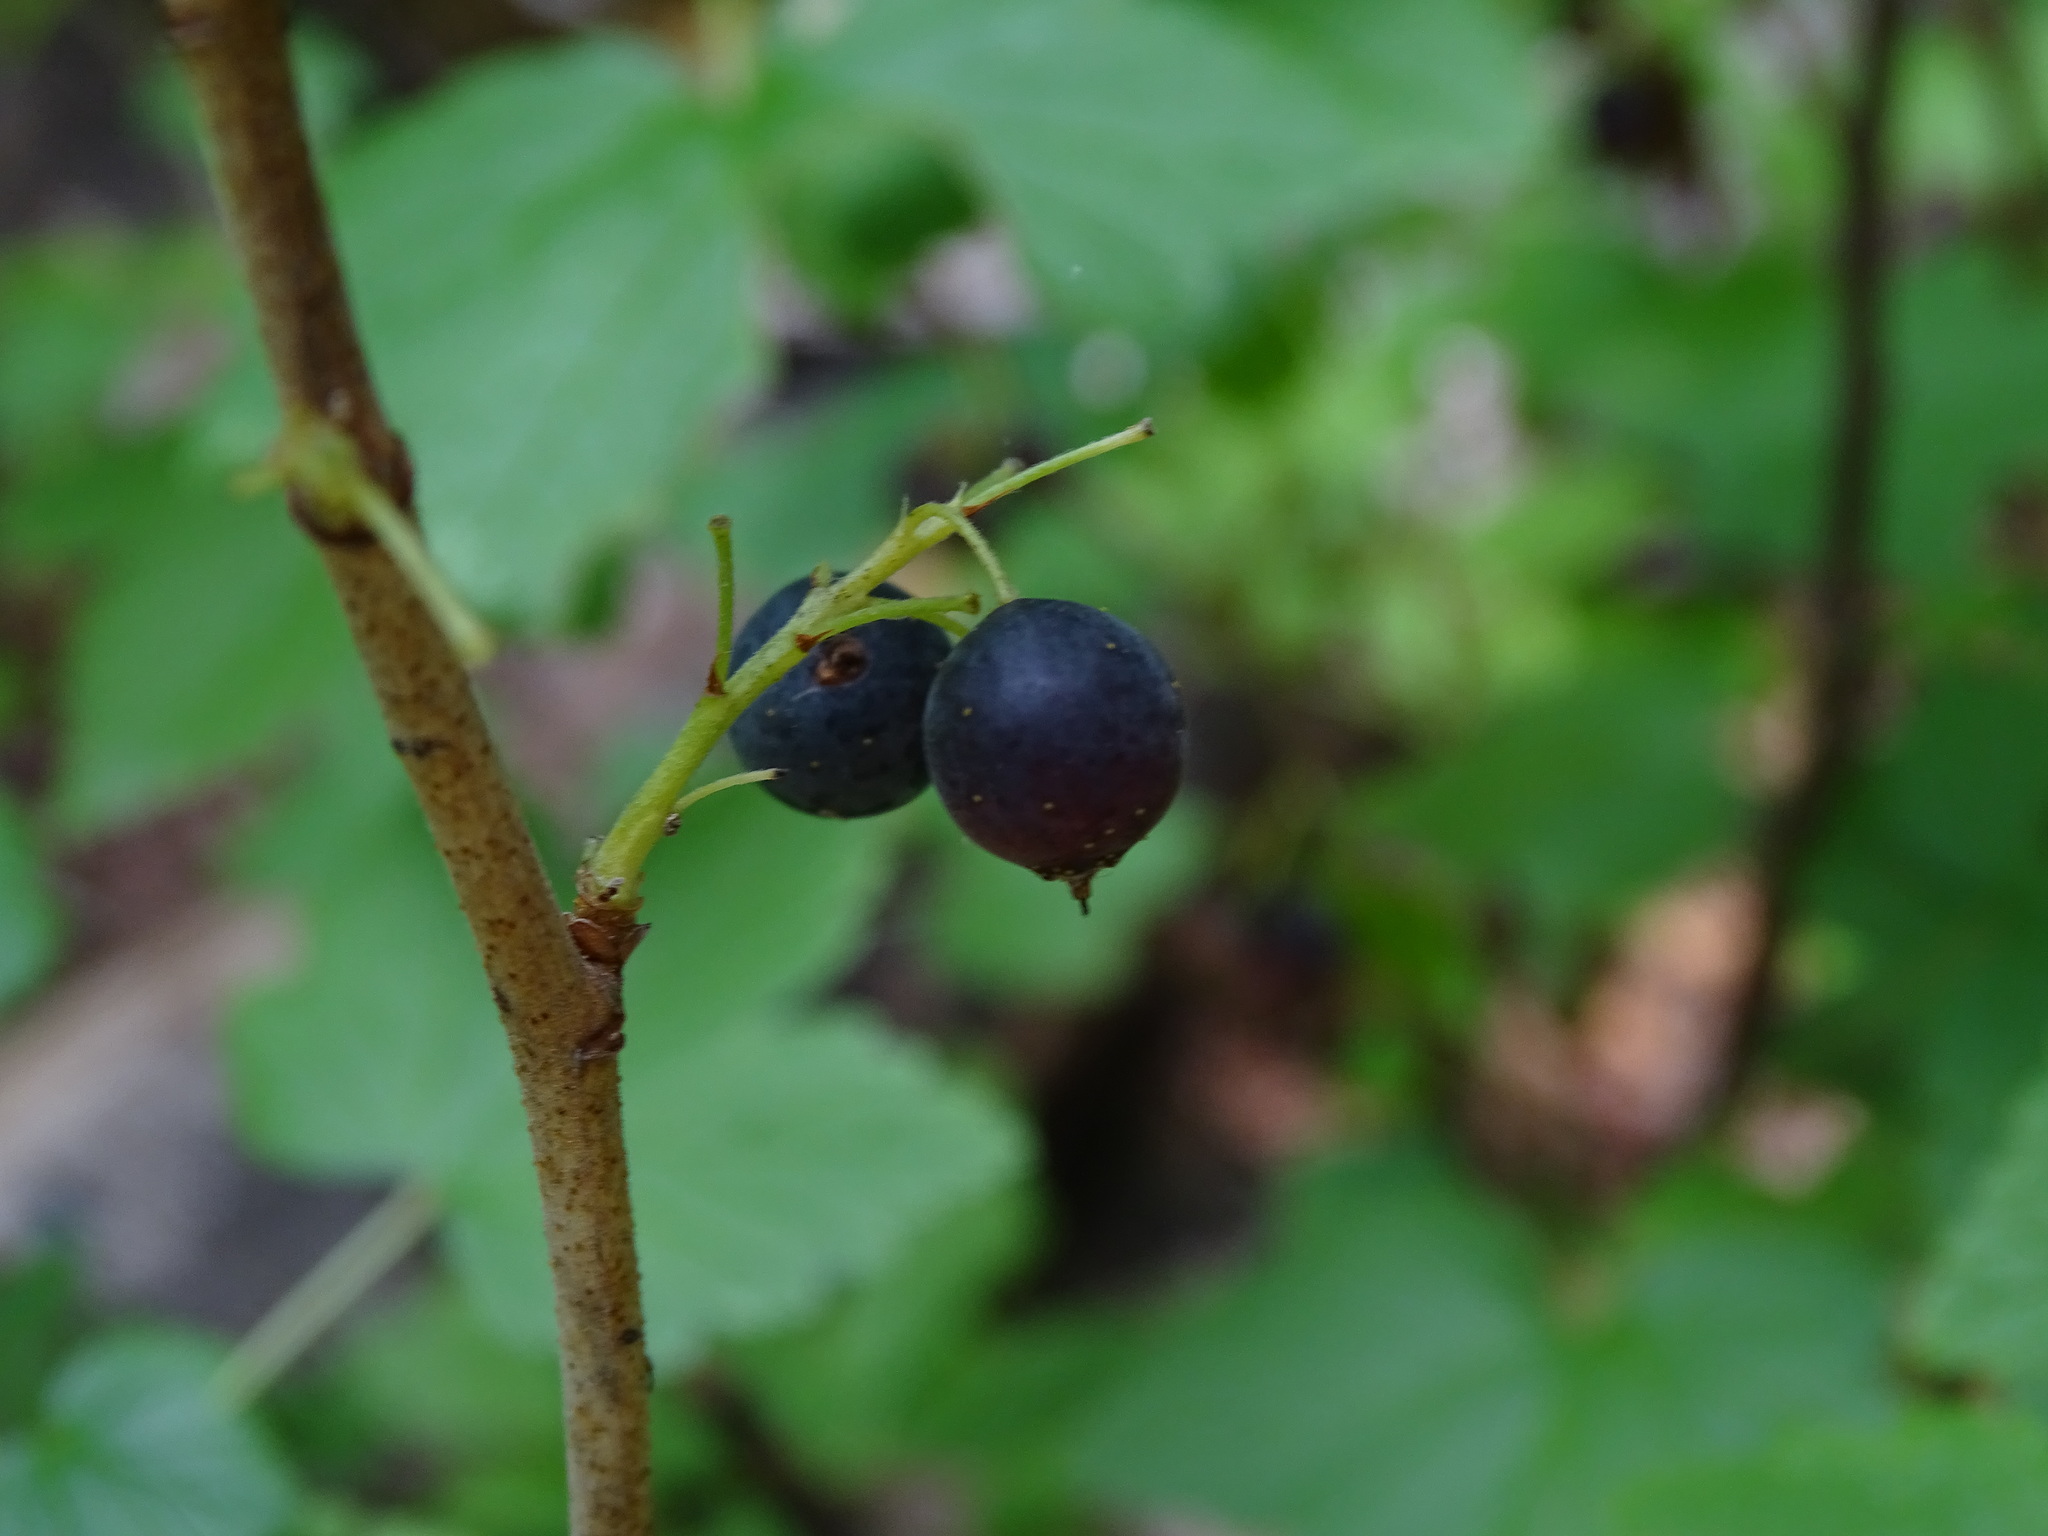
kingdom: Plantae
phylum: Tracheophyta
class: Magnoliopsida
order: Saxifragales
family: Grossulariaceae
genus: Ribes
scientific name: Ribes hudsonianum
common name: Northern black currant
